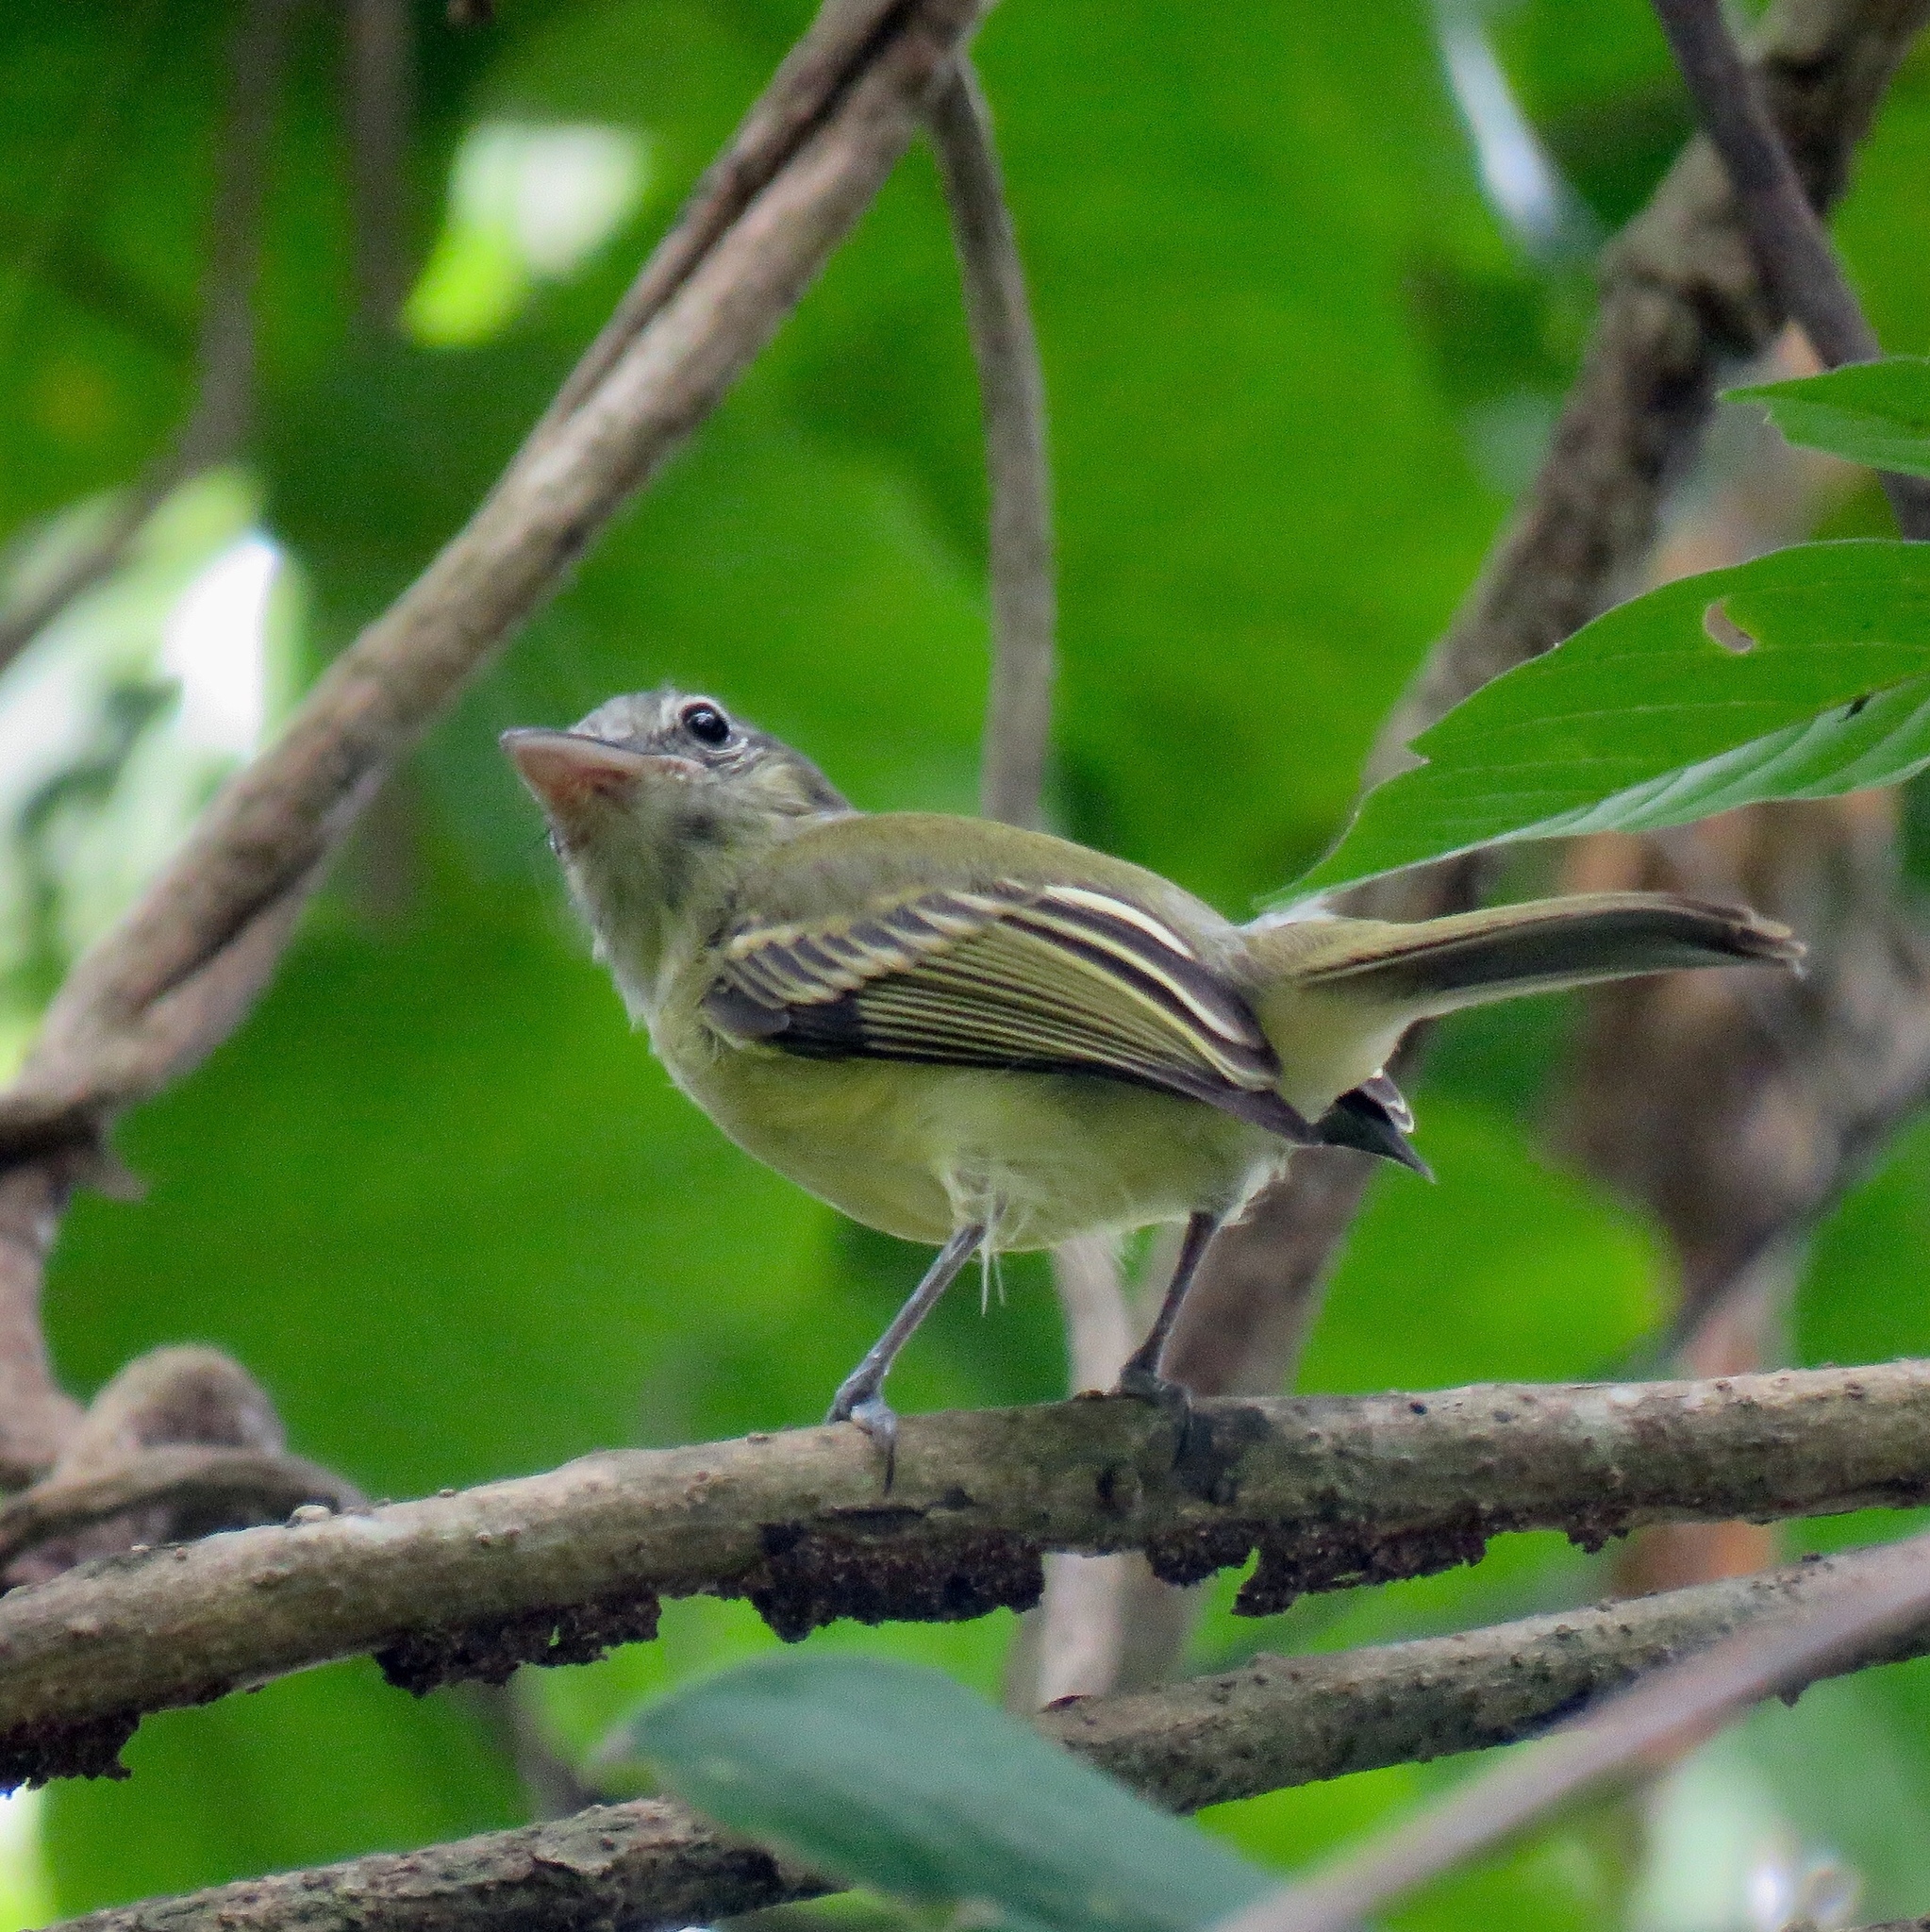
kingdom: Animalia
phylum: Chordata
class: Aves
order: Passeriformes
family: Tyrannidae
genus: Tolmomyias
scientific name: Tolmomyias sulphurescens
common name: Yellow-olive flycatcher
